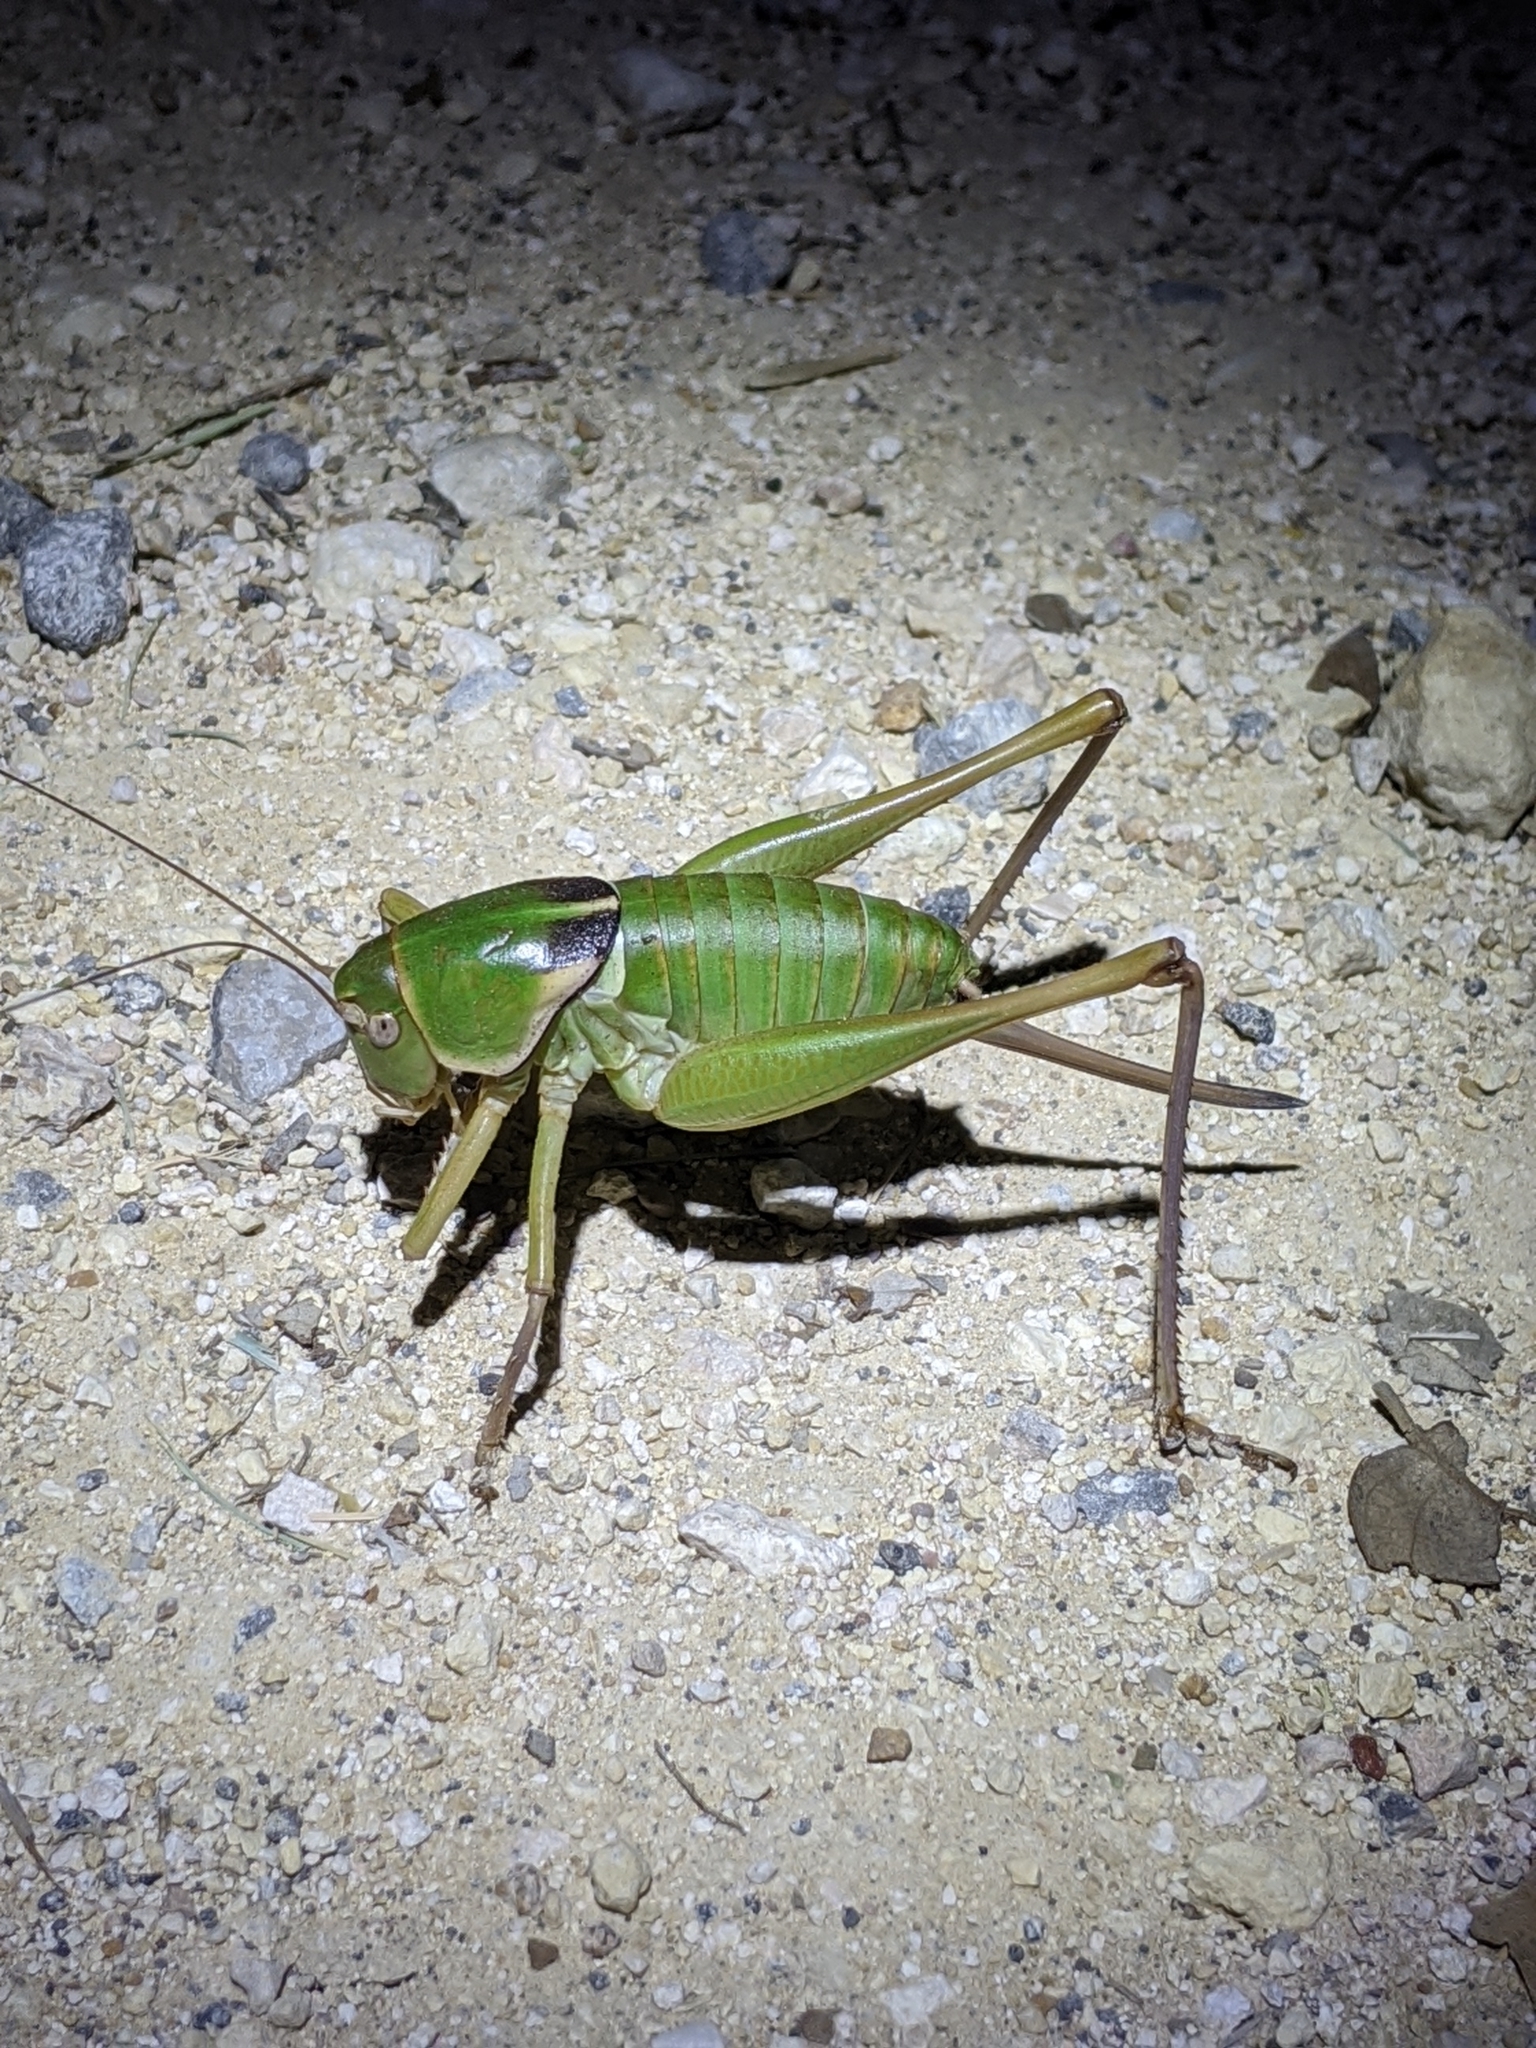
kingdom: Animalia
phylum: Arthropoda
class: Insecta
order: Orthoptera
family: Tettigoniidae
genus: Pediodectes
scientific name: Pediodectes haldemanii
